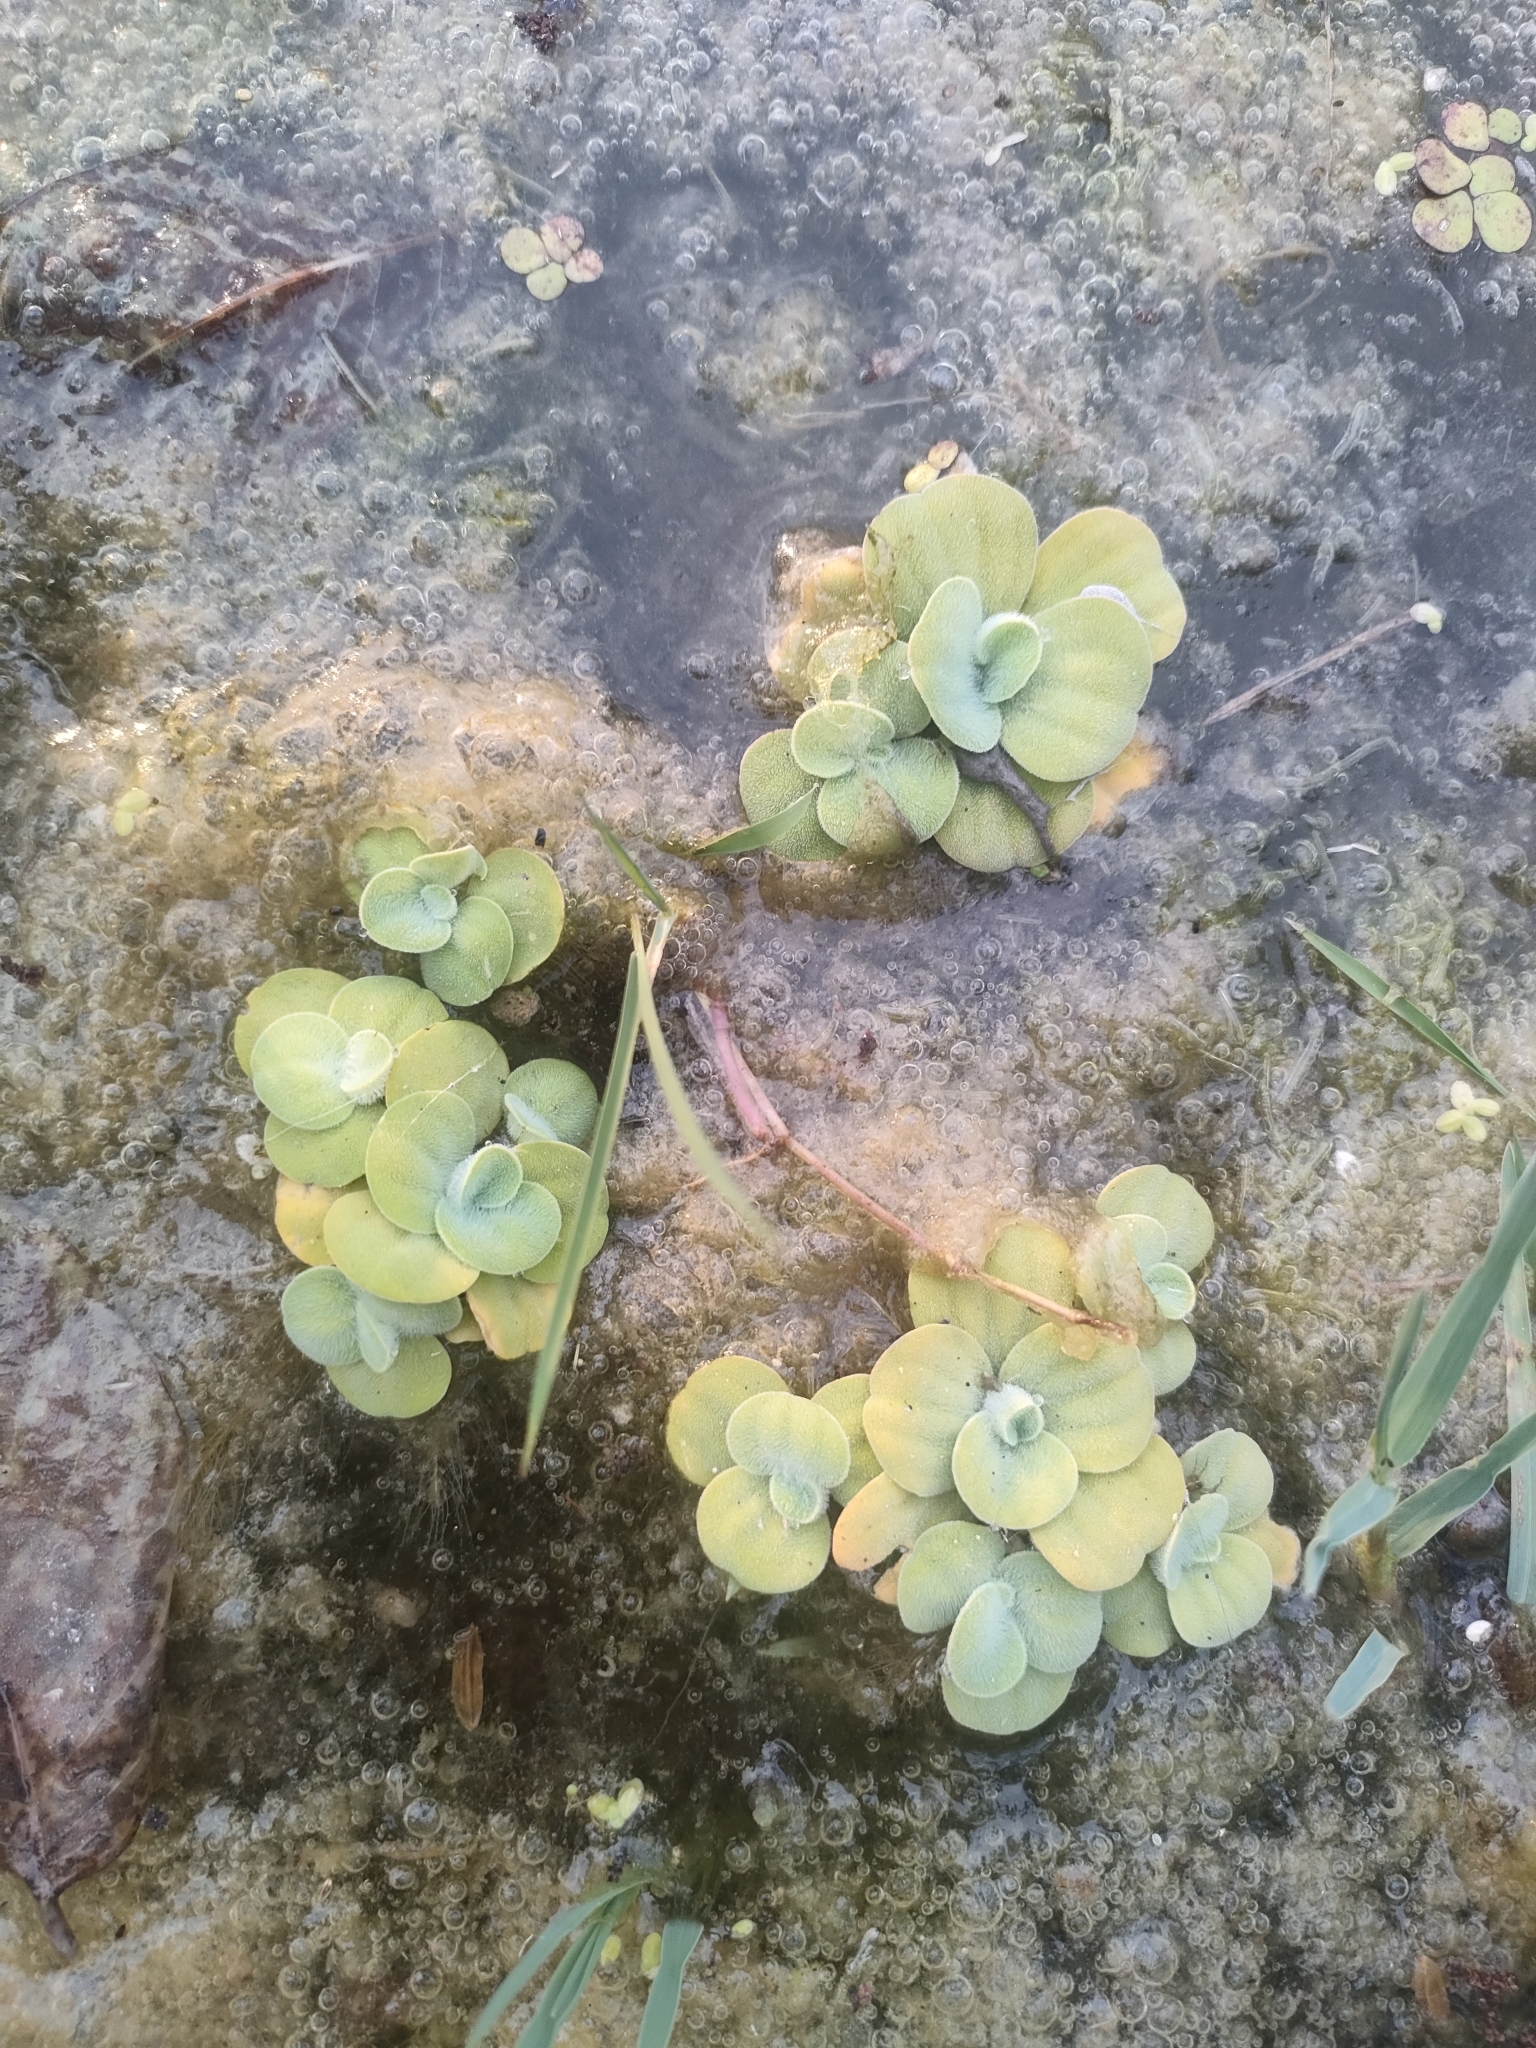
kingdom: Plantae
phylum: Tracheophyta
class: Liliopsida
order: Alismatales
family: Araceae
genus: Pistia
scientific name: Pistia stratiotes
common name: Water lettuce
